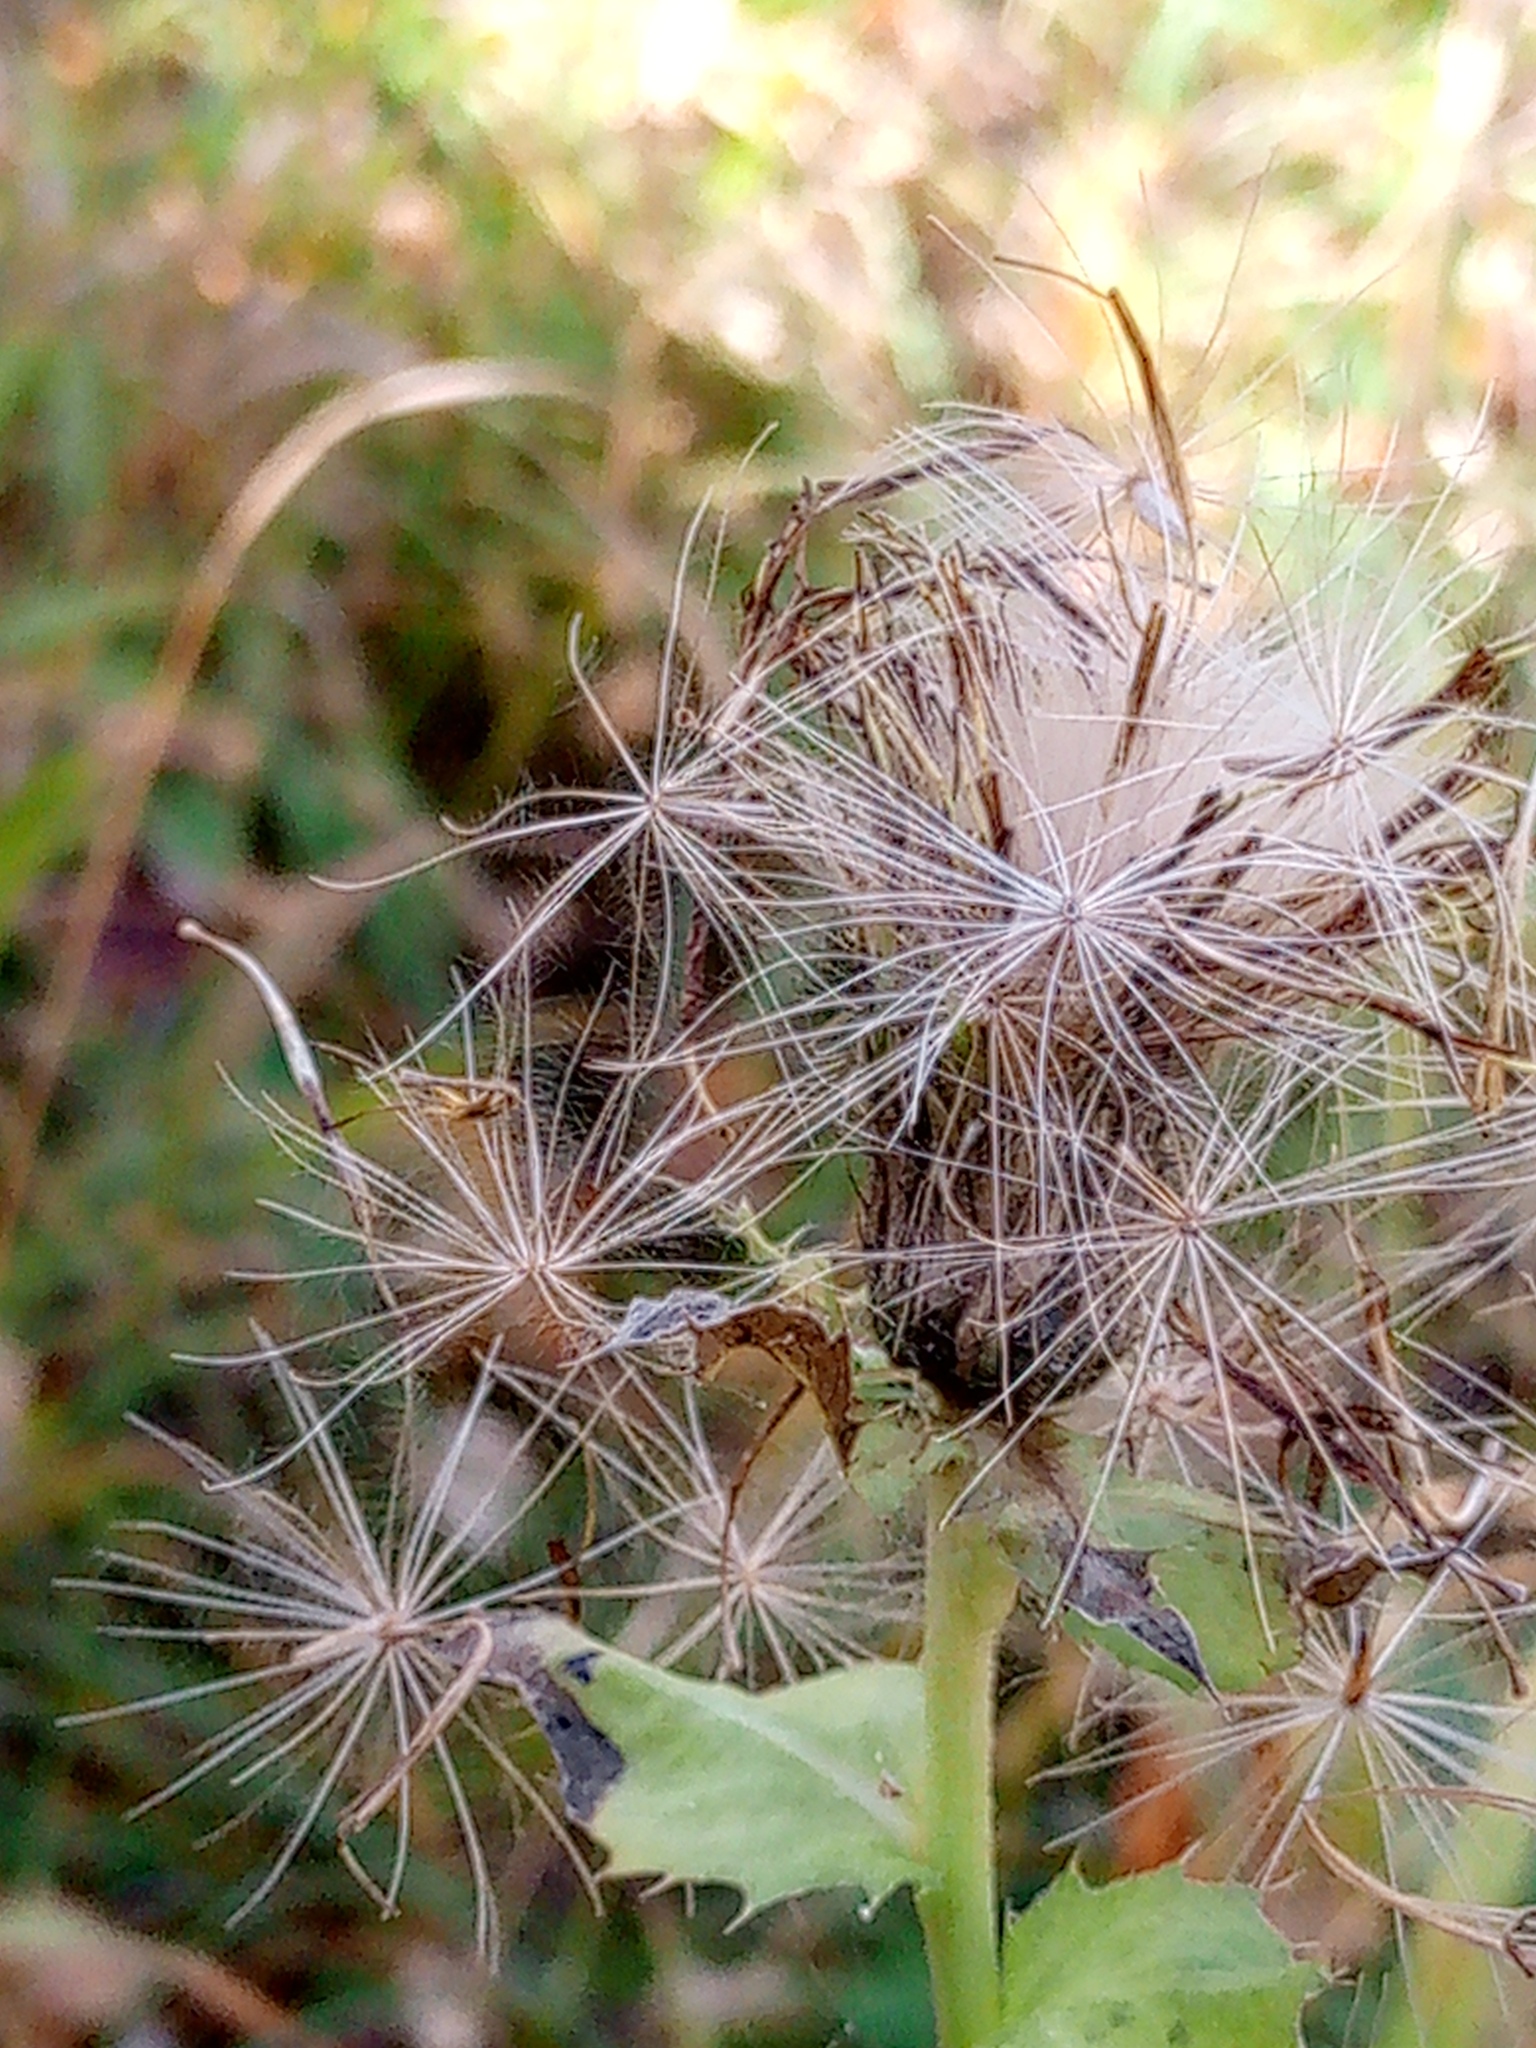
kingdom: Plantae
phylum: Tracheophyta
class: Magnoliopsida
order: Asterales
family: Asteraceae
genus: Cirsium
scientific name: Cirsium oleraceum
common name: Cabbage thistle
